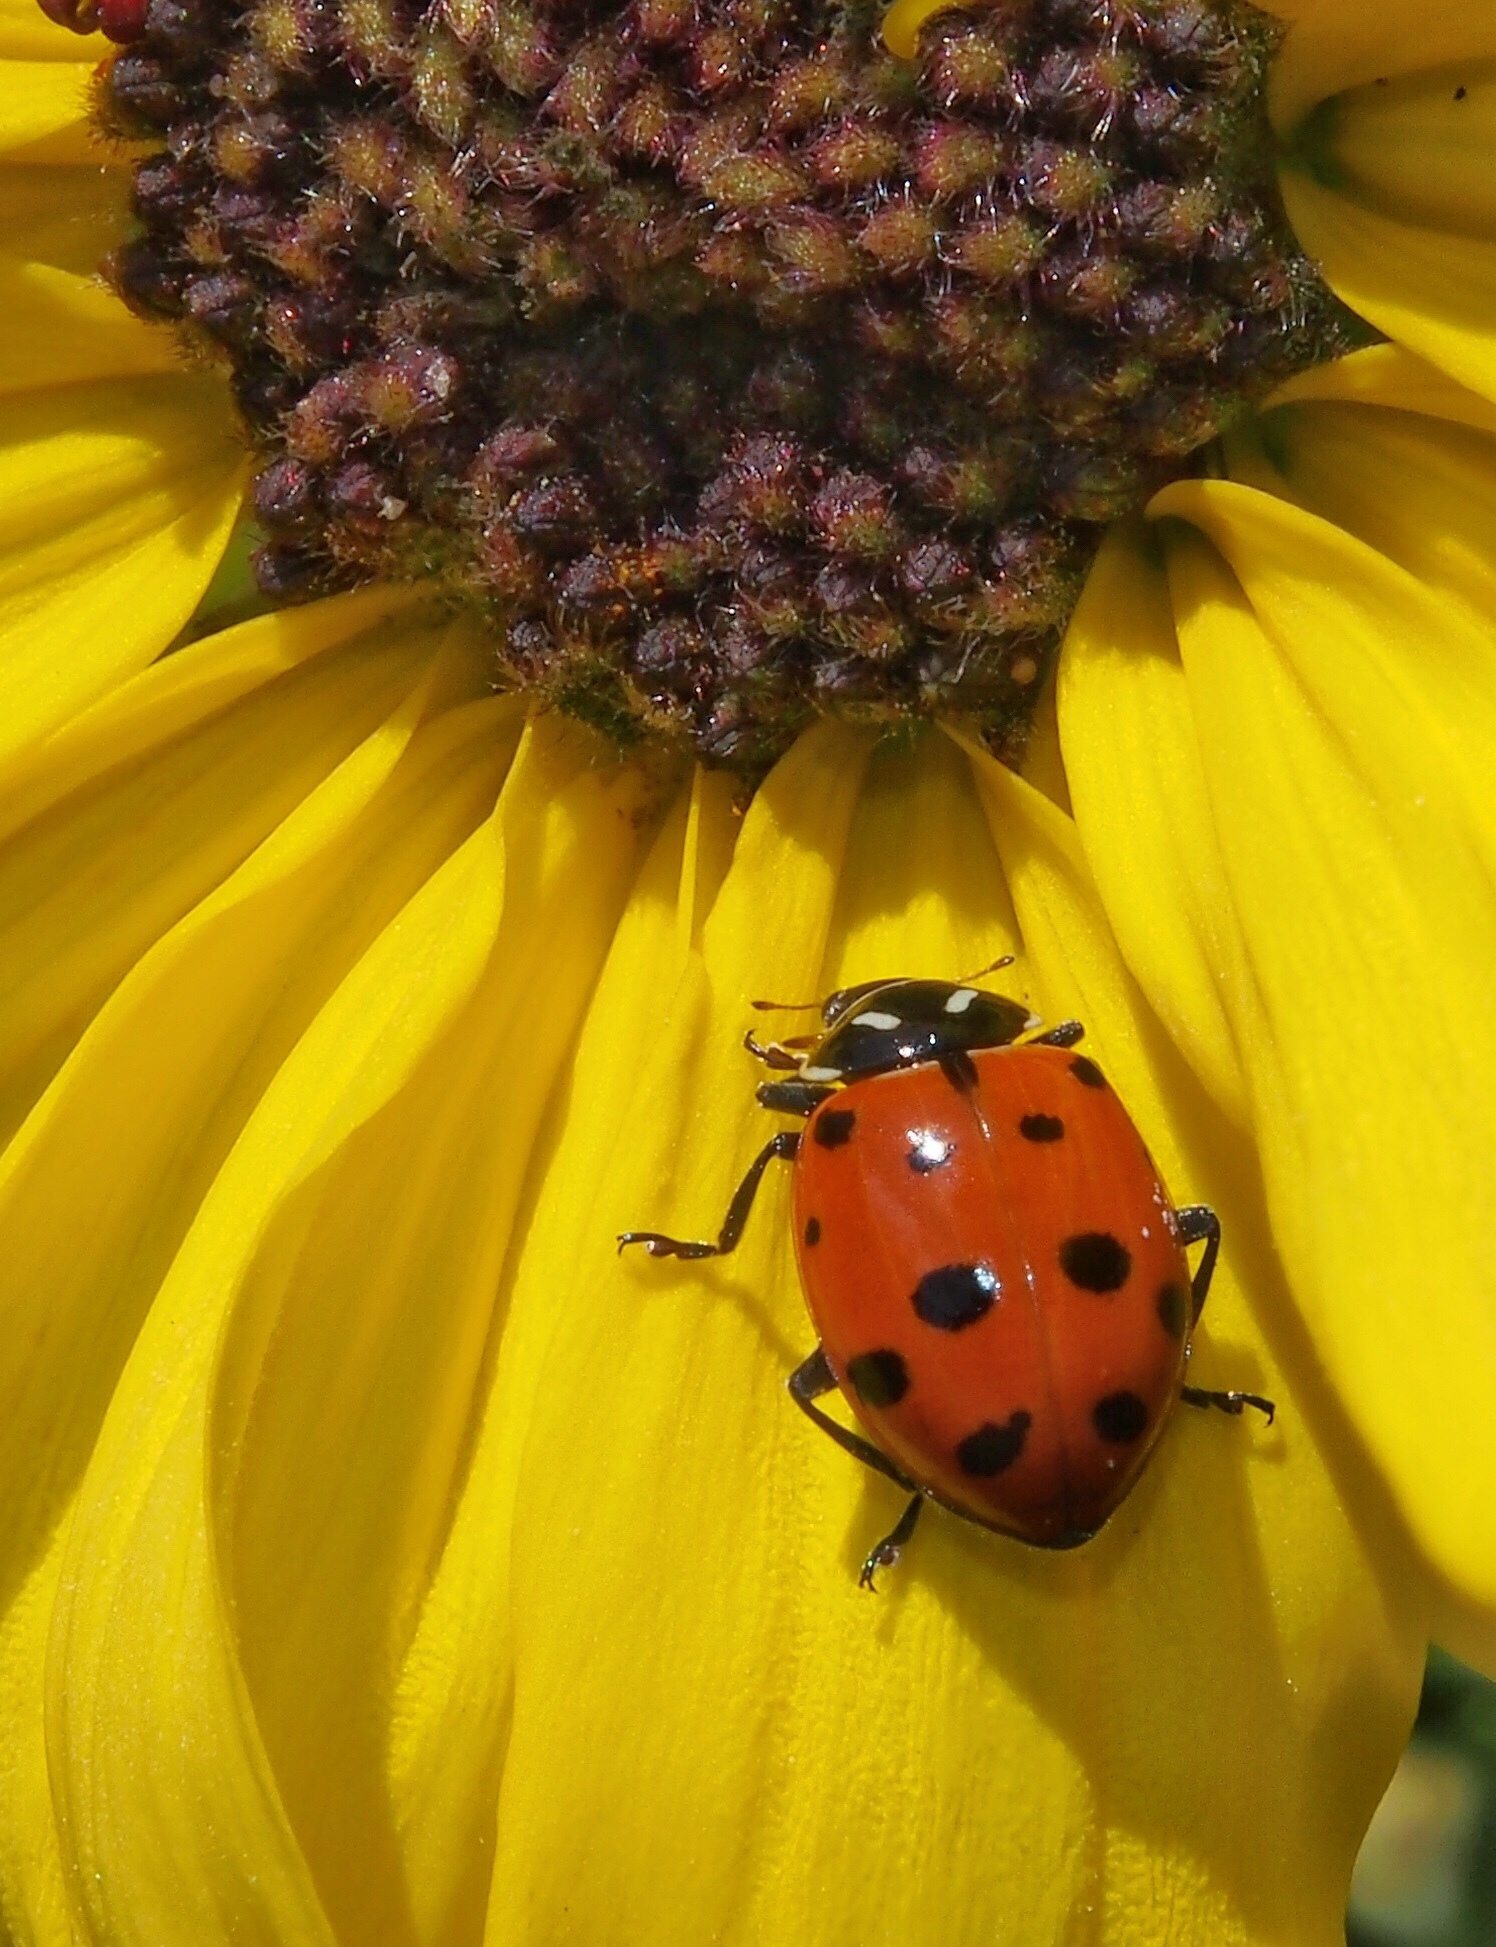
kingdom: Animalia
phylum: Arthropoda
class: Insecta
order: Coleoptera
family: Coccinellidae
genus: Hippodamia
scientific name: Hippodamia convergens
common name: Convergent lady beetle
